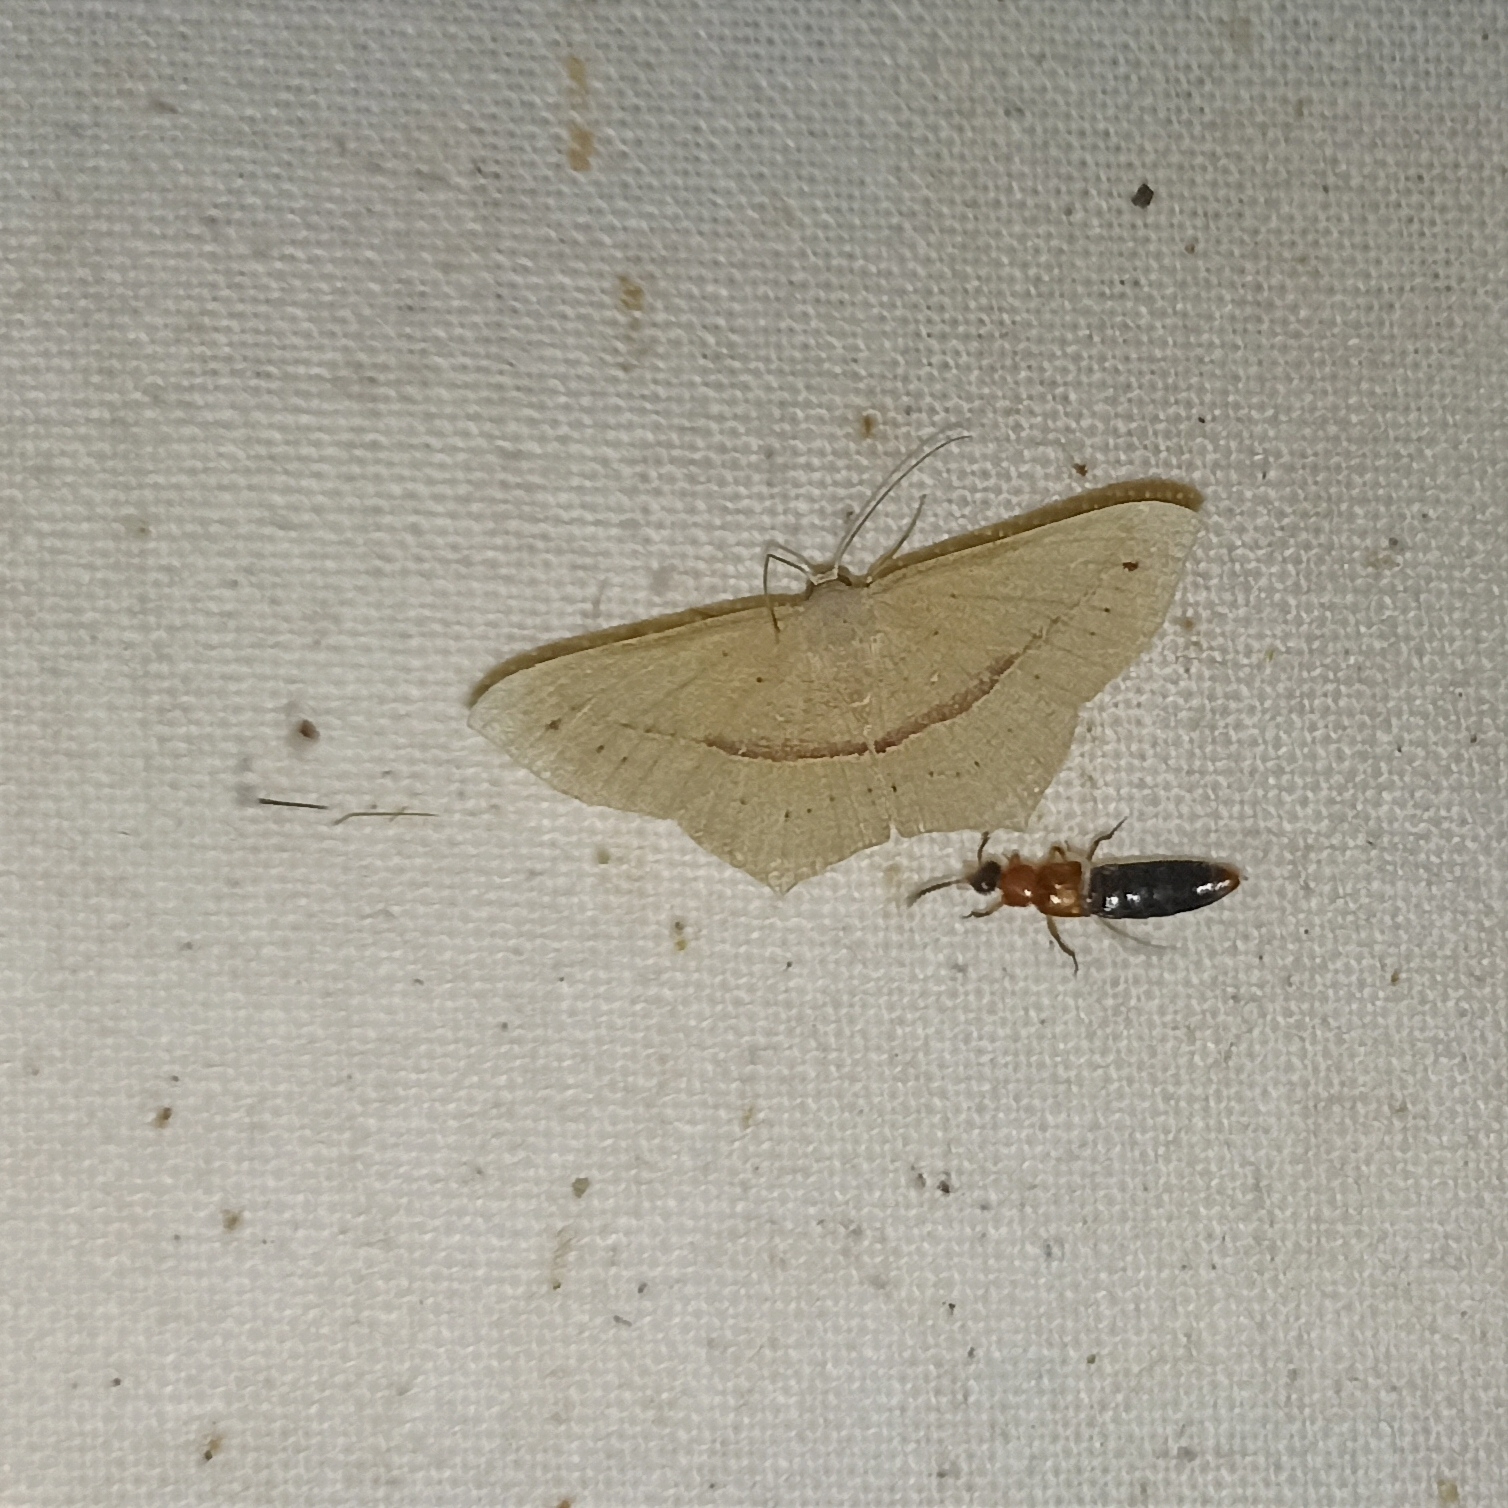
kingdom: Animalia
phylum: Arthropoda
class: Insecta
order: Lepidoptera
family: Geometridae
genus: Traminda
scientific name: Traminda mundissima
